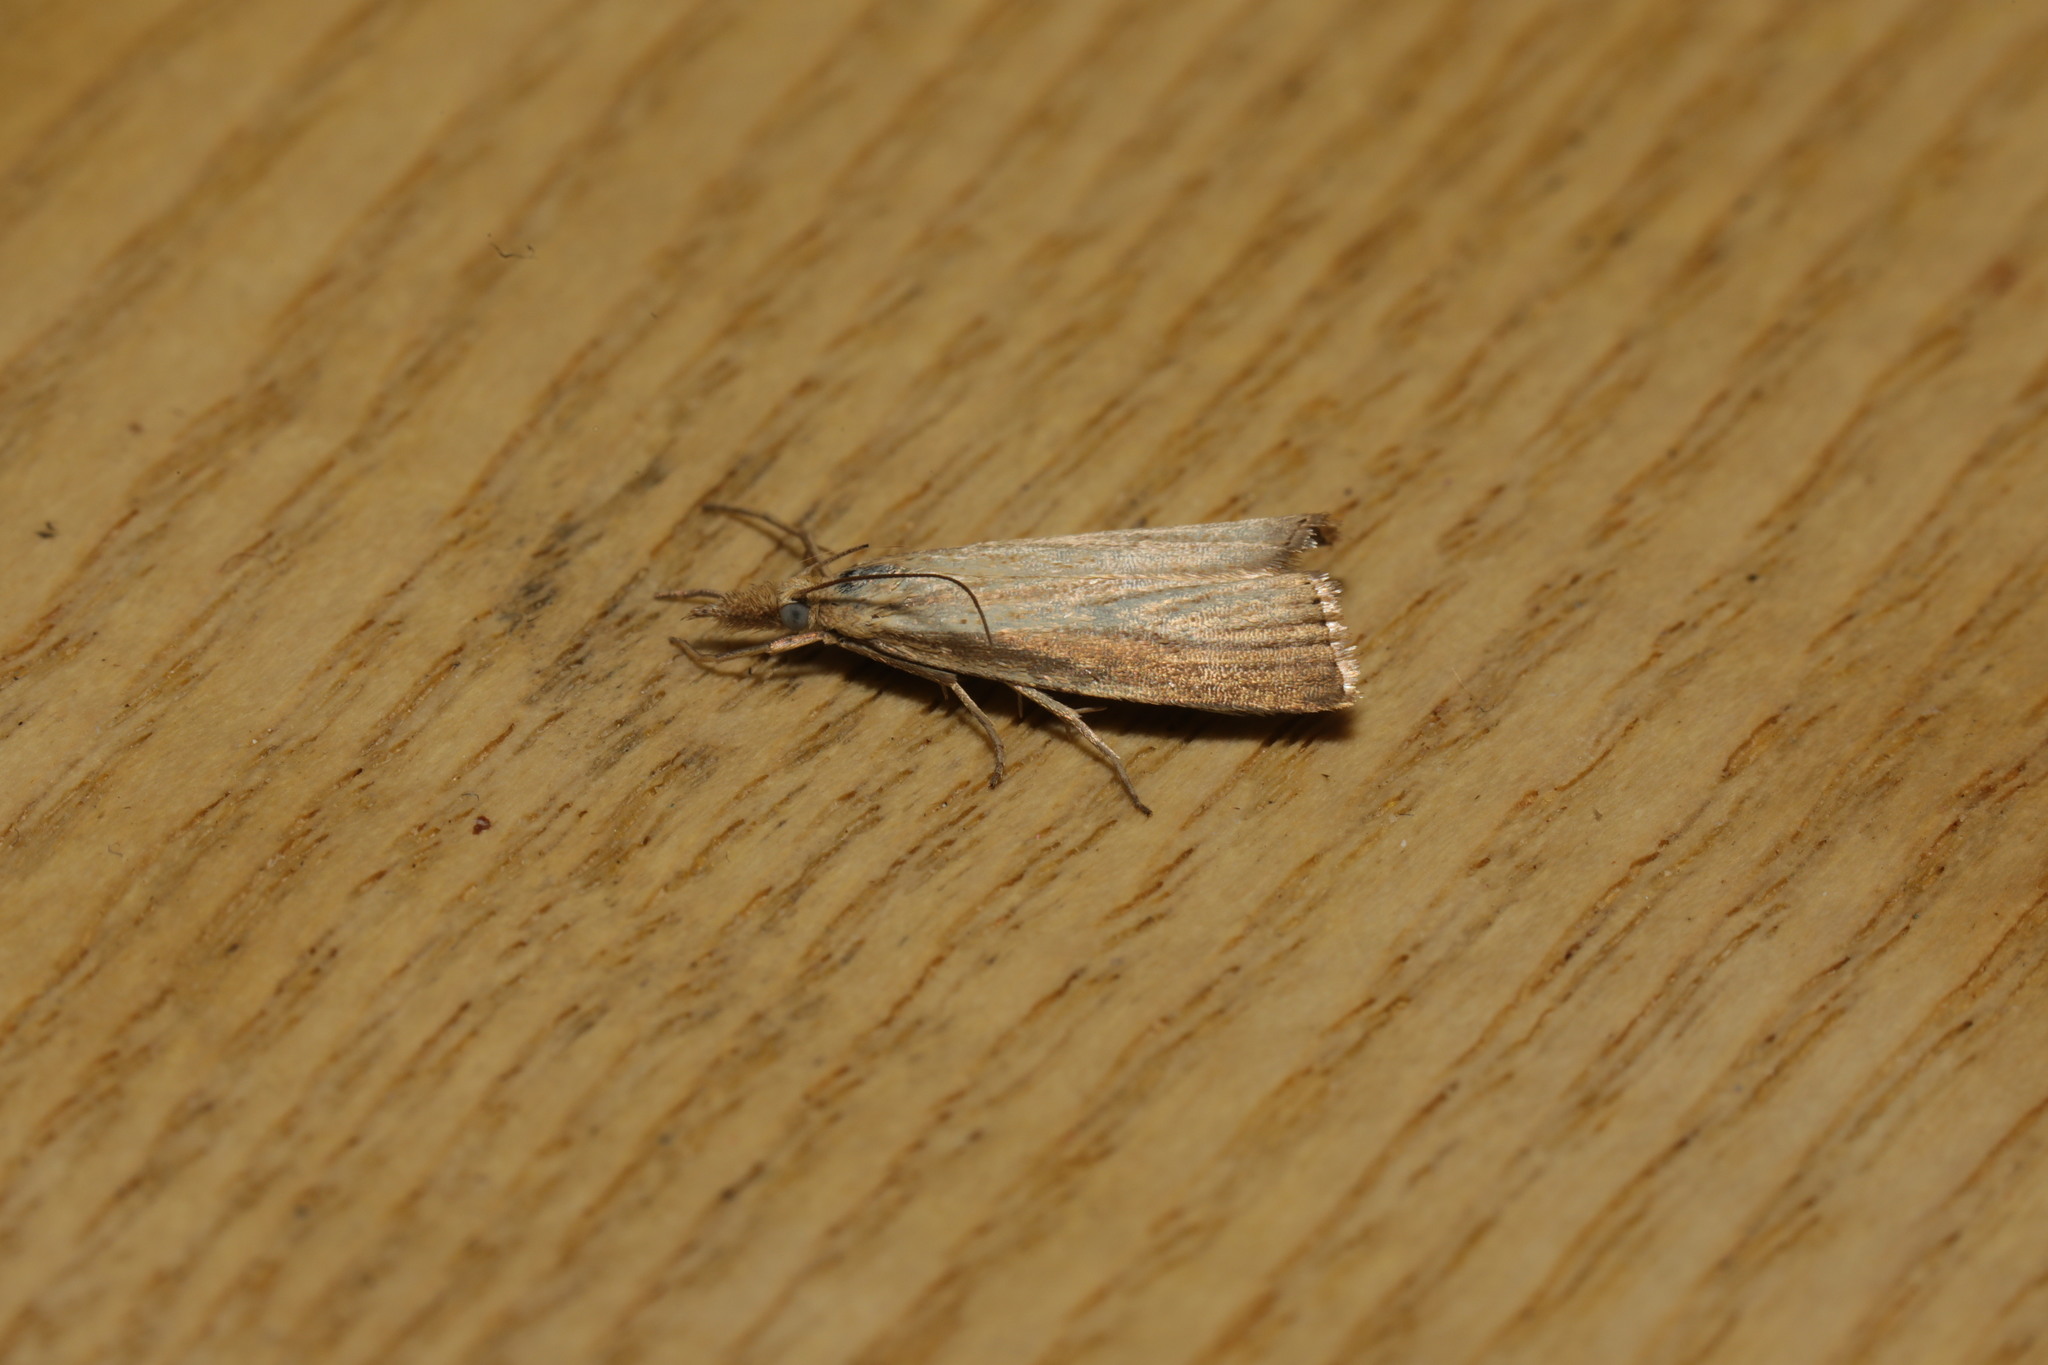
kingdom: Animalia
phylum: Arthropoda
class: Insecta
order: Lepidoptera
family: Crambidae
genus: Agriphila
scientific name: Agriphila straminella
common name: Straw grass-veneer
